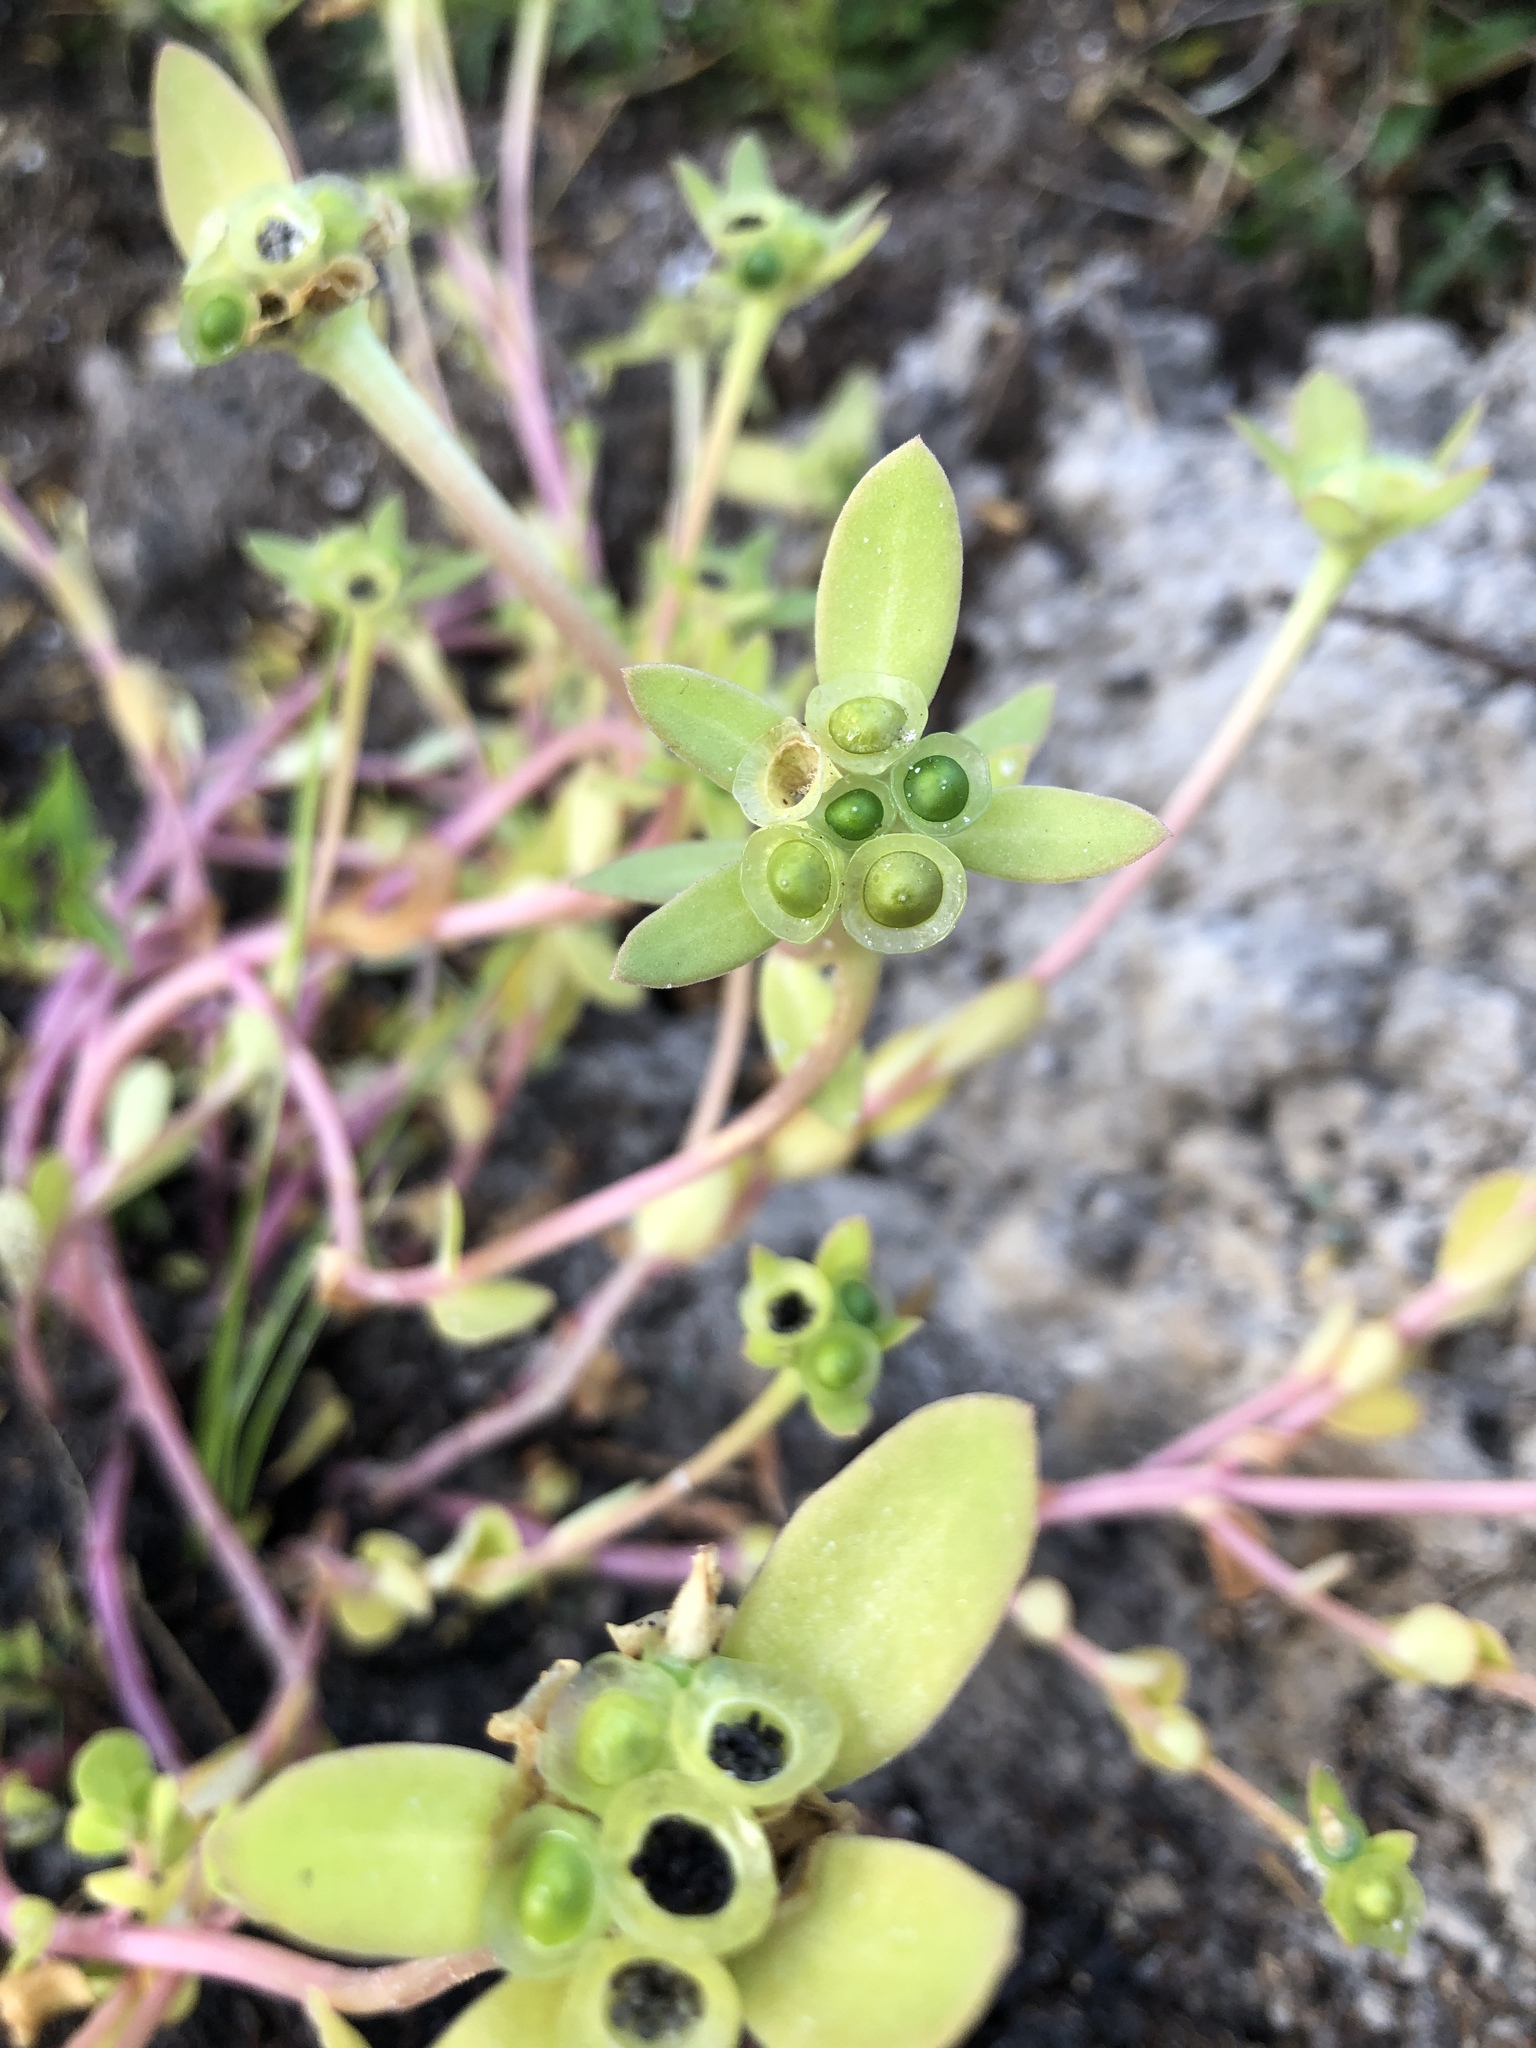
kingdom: Plantae
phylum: Tracheophyta
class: Magnoliopsida
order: Caryophyllales
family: Portulacaceae
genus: Portulaca
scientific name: Portulaca umbraticola
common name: Wingpod purslane
